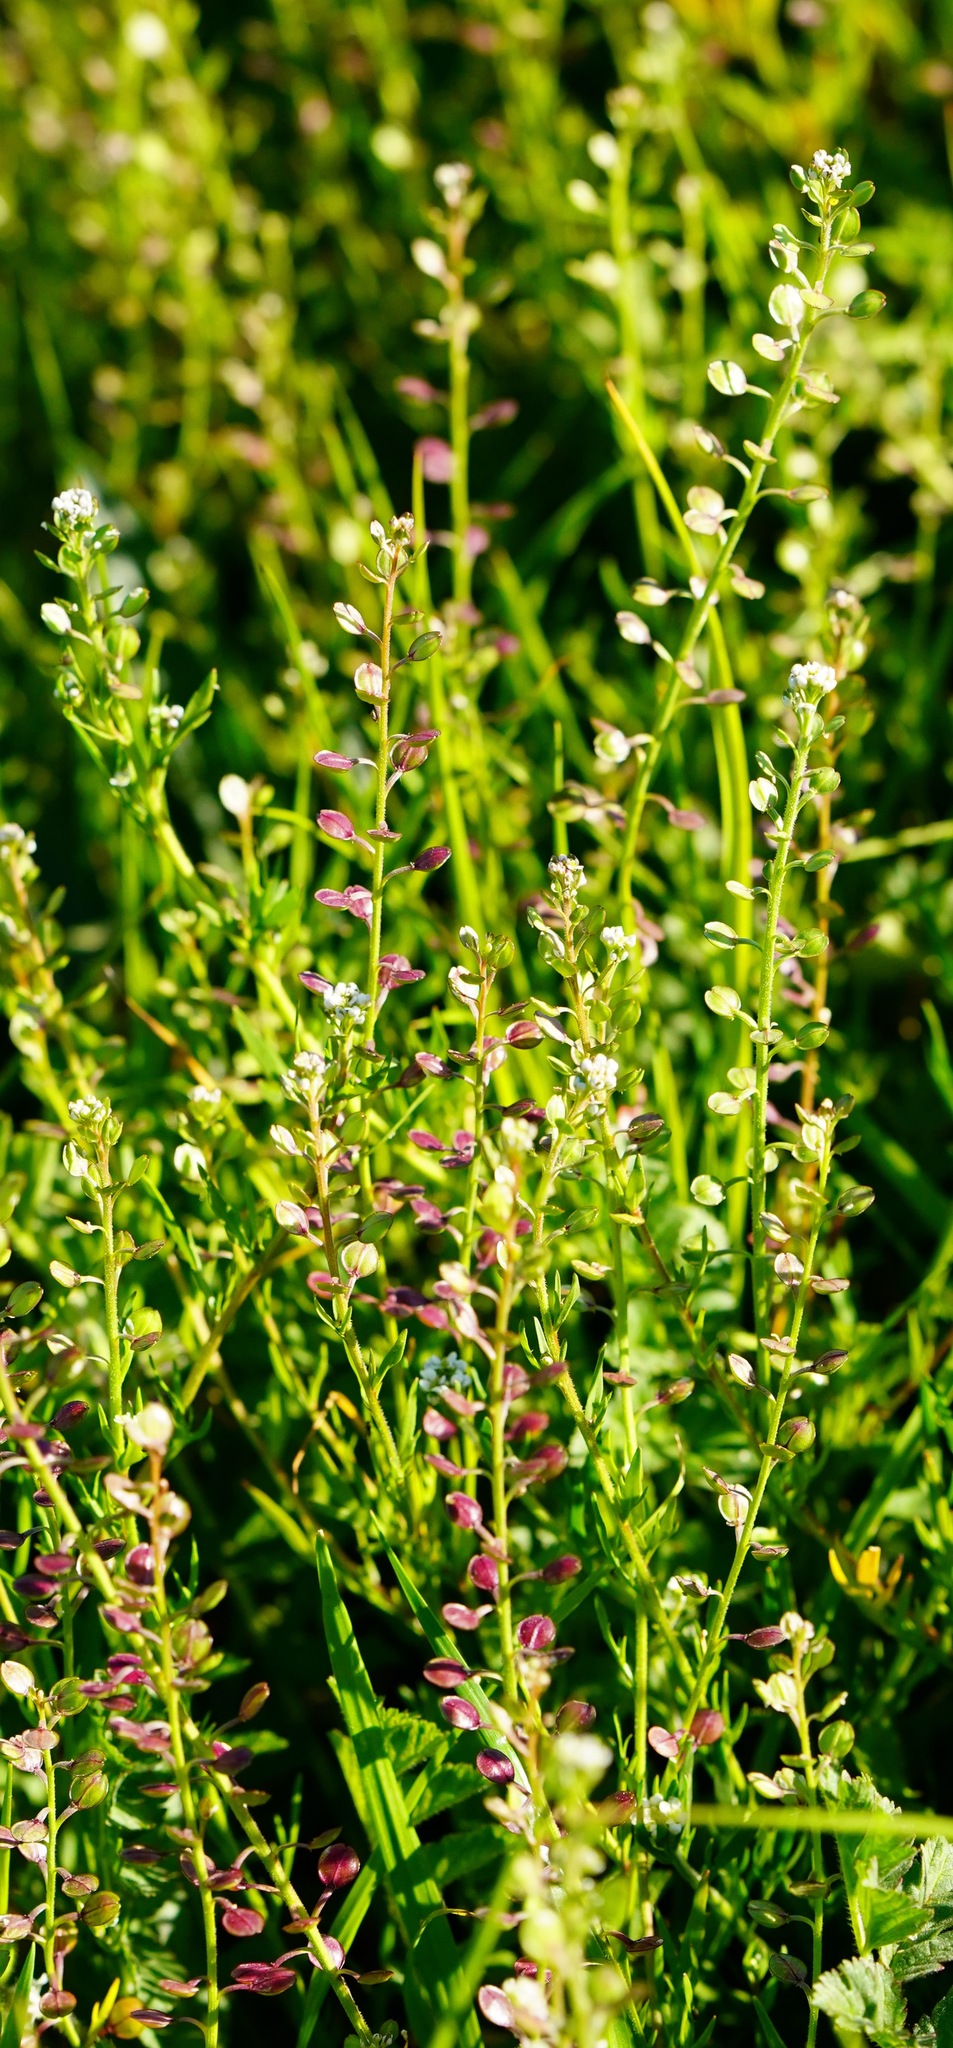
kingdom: Plantae
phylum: Tracheophyta
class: Magnoliopsida
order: Brassicales
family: Brassicaceae
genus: Lepidium
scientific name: Lepidium nitidum
